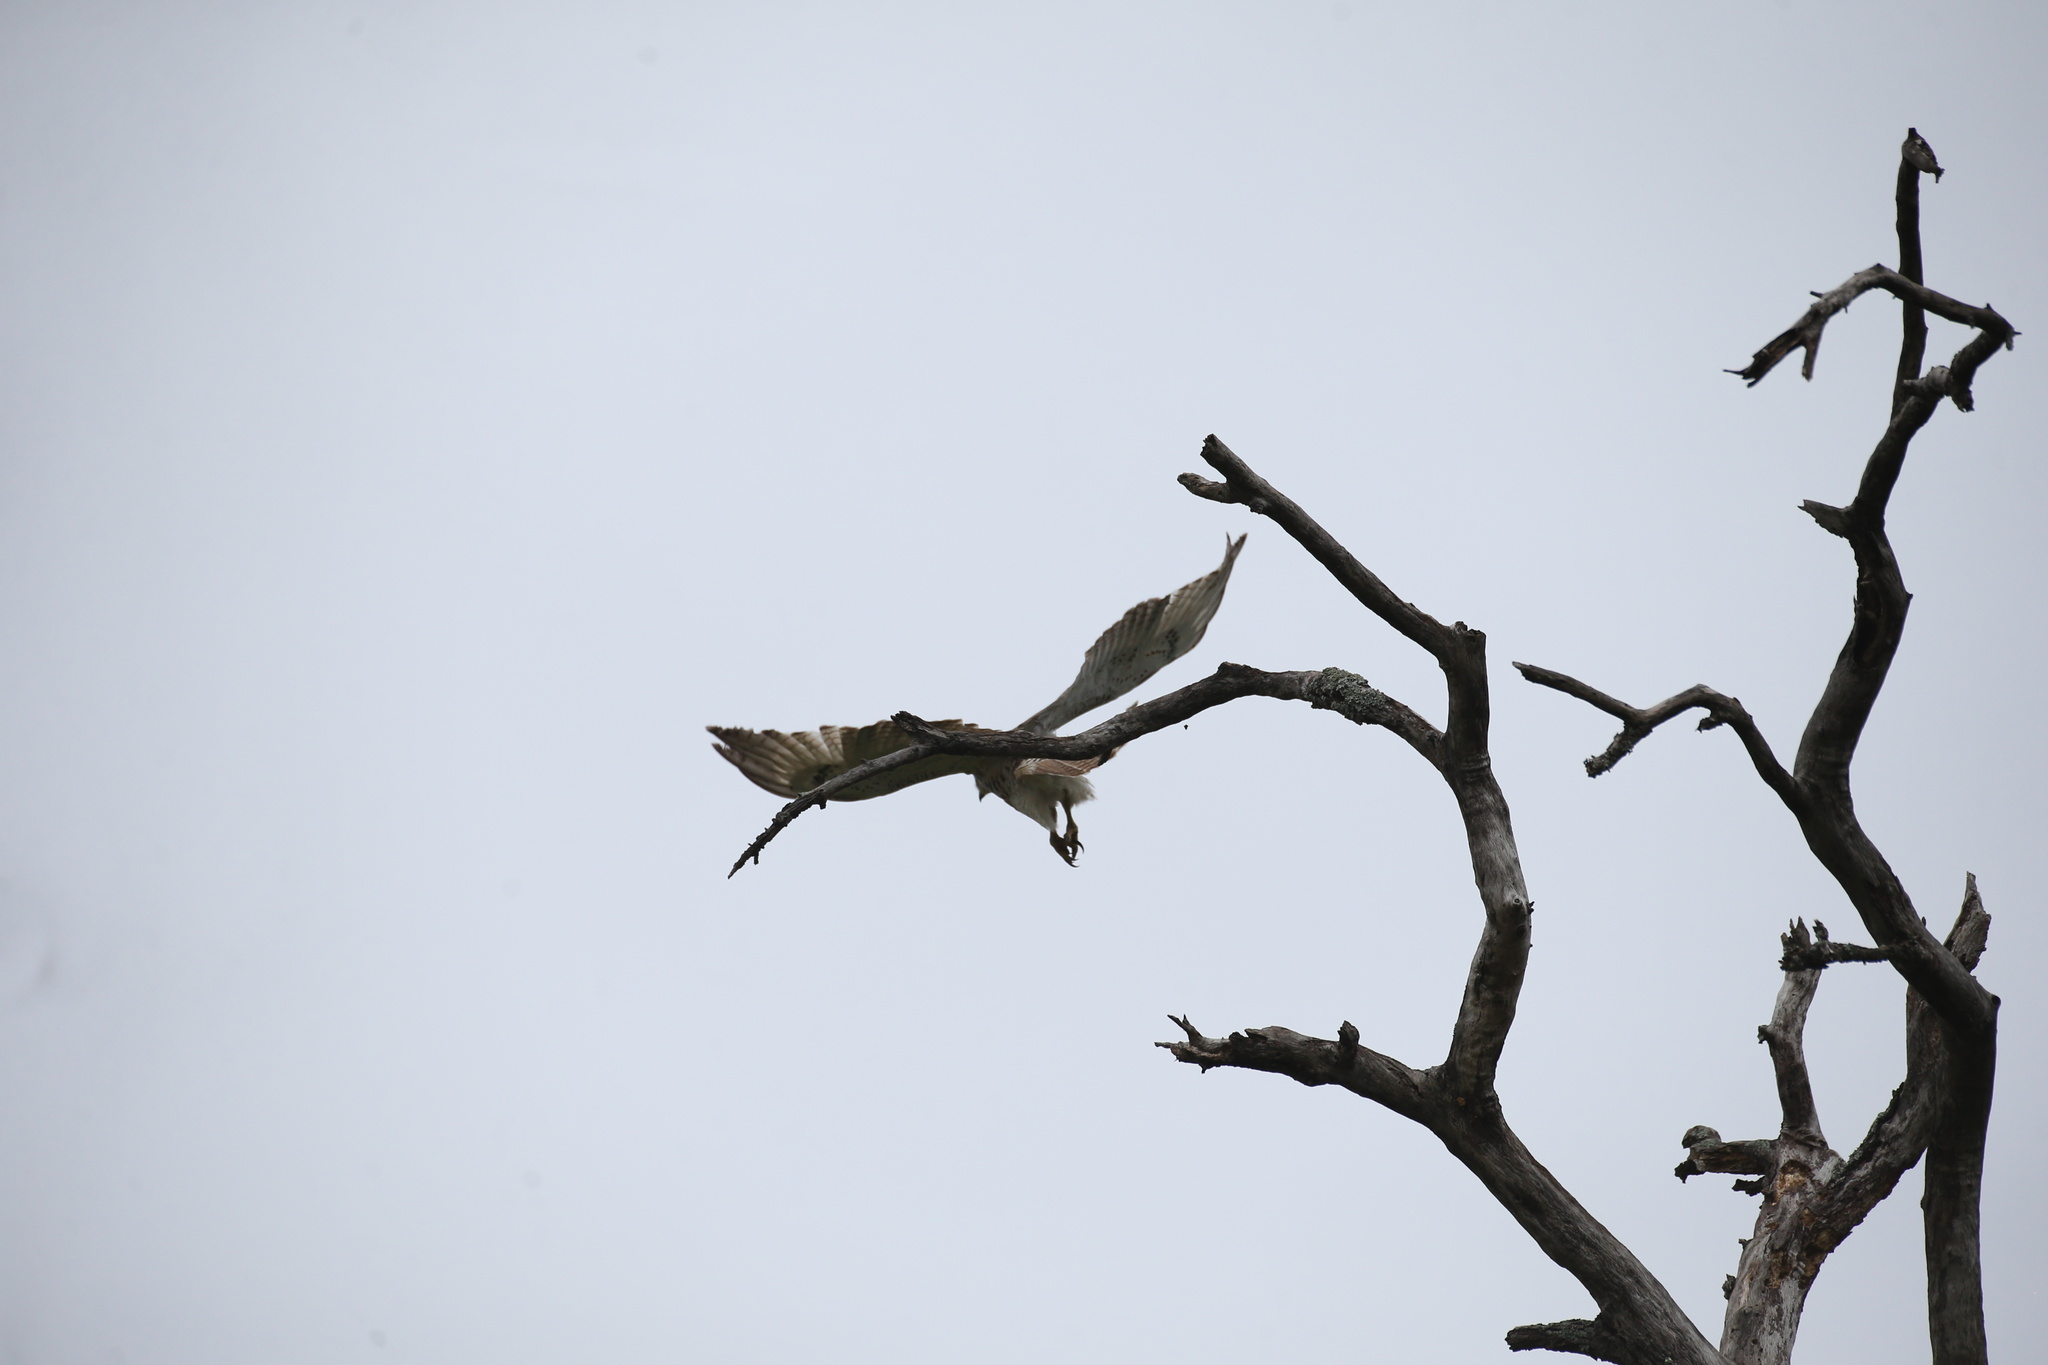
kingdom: Animalia
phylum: Chordata
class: Aves
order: Accipitriformes
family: Accipitridae
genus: Buteo
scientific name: Buteo jamaicensis
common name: Red-tailed hawk
